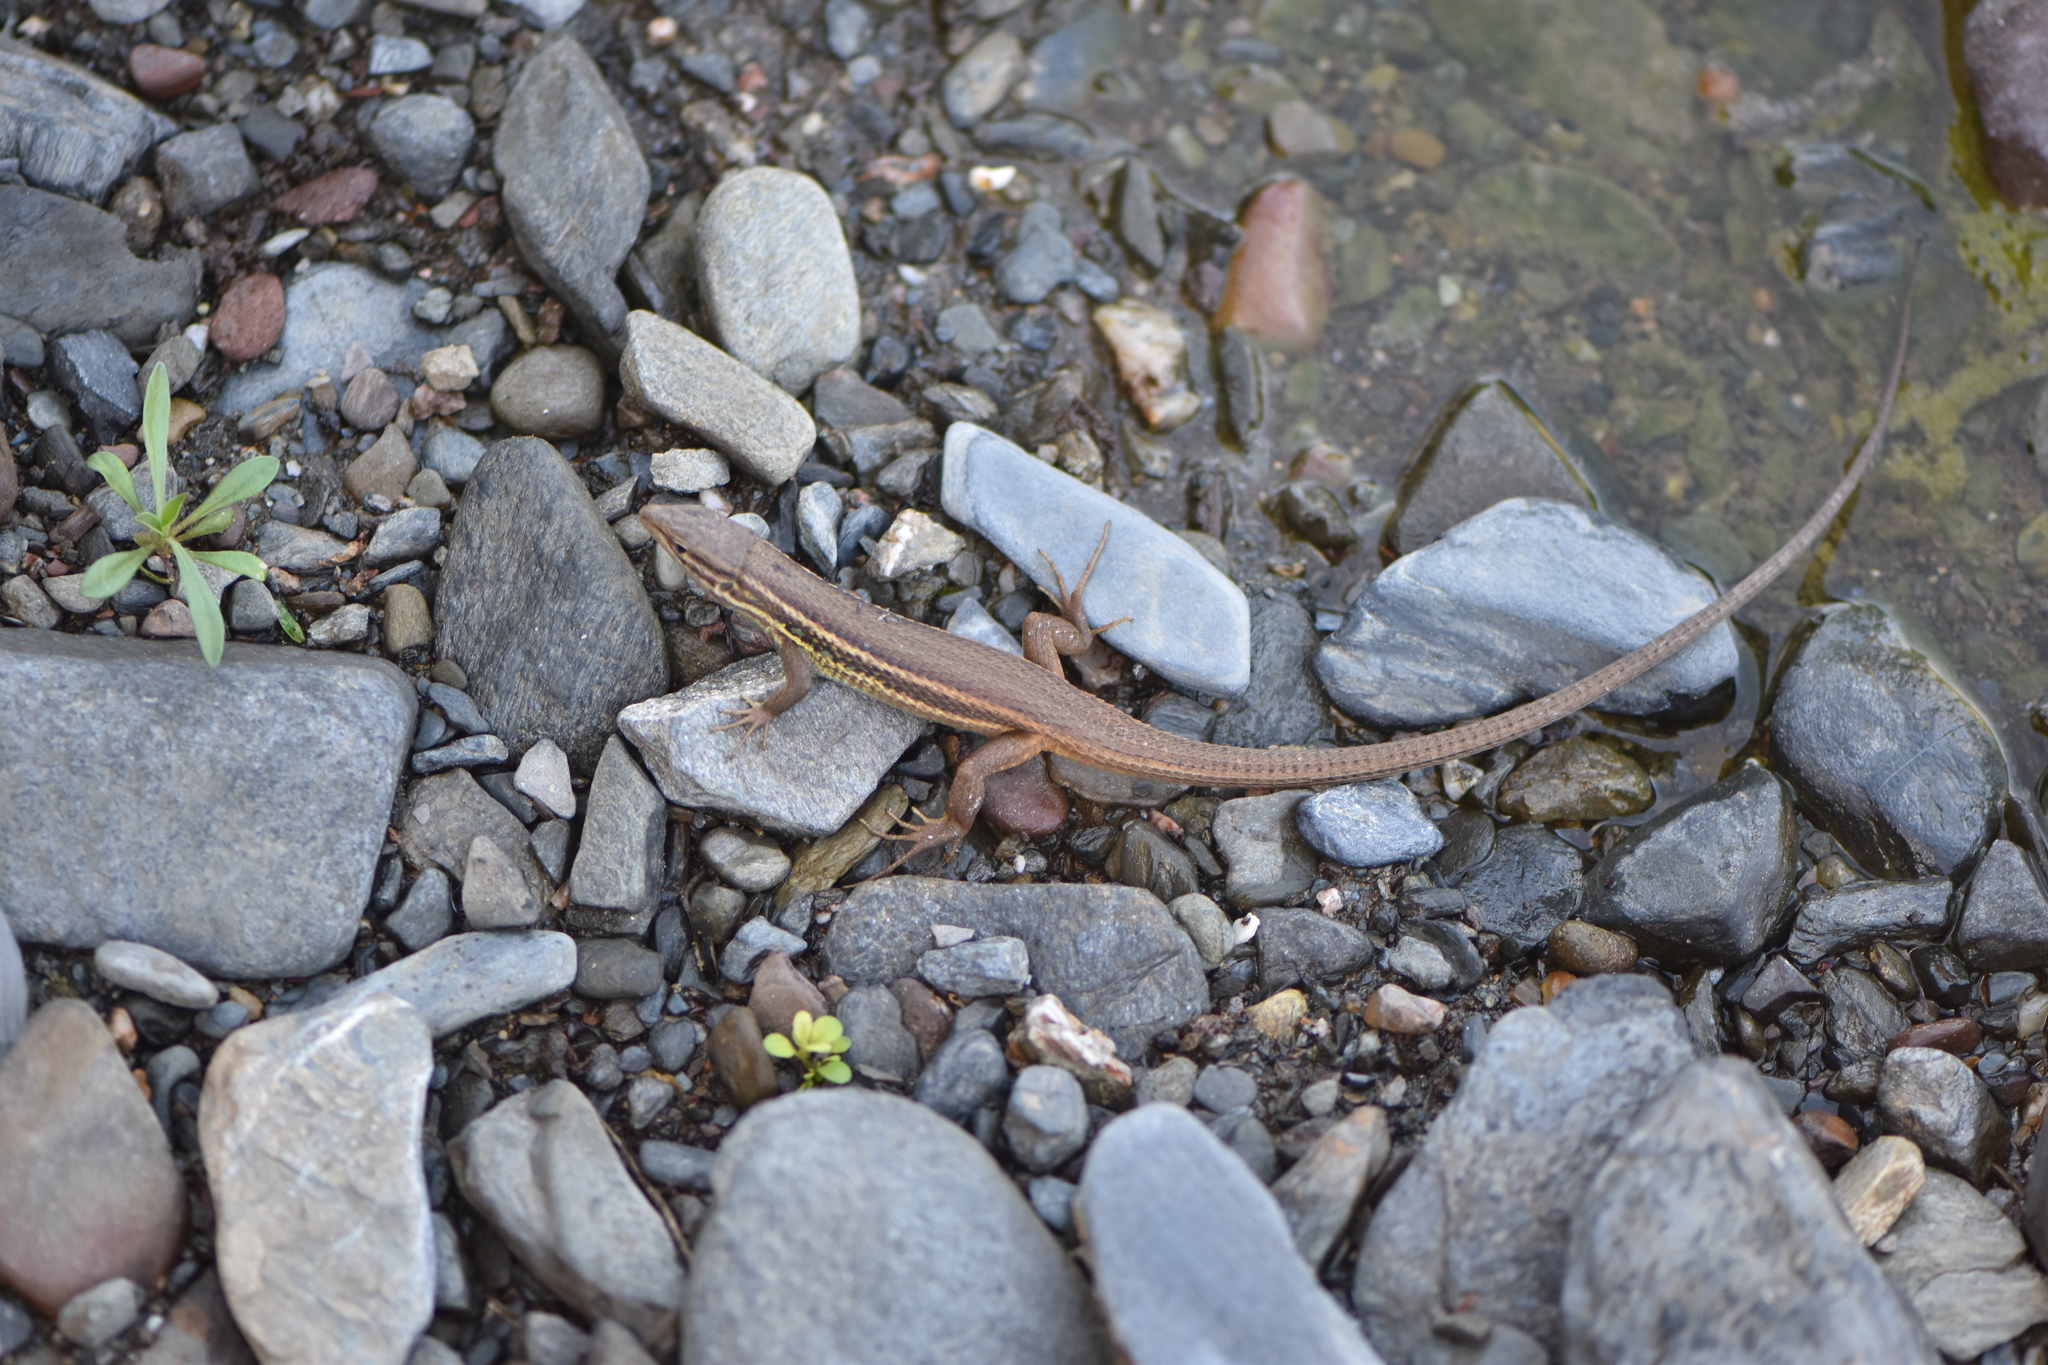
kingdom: Animalia
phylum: Chordata
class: Squamata
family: Lacertidae
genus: Psammodromus
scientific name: Psammodromus algirus
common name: Algerian psammodromus
